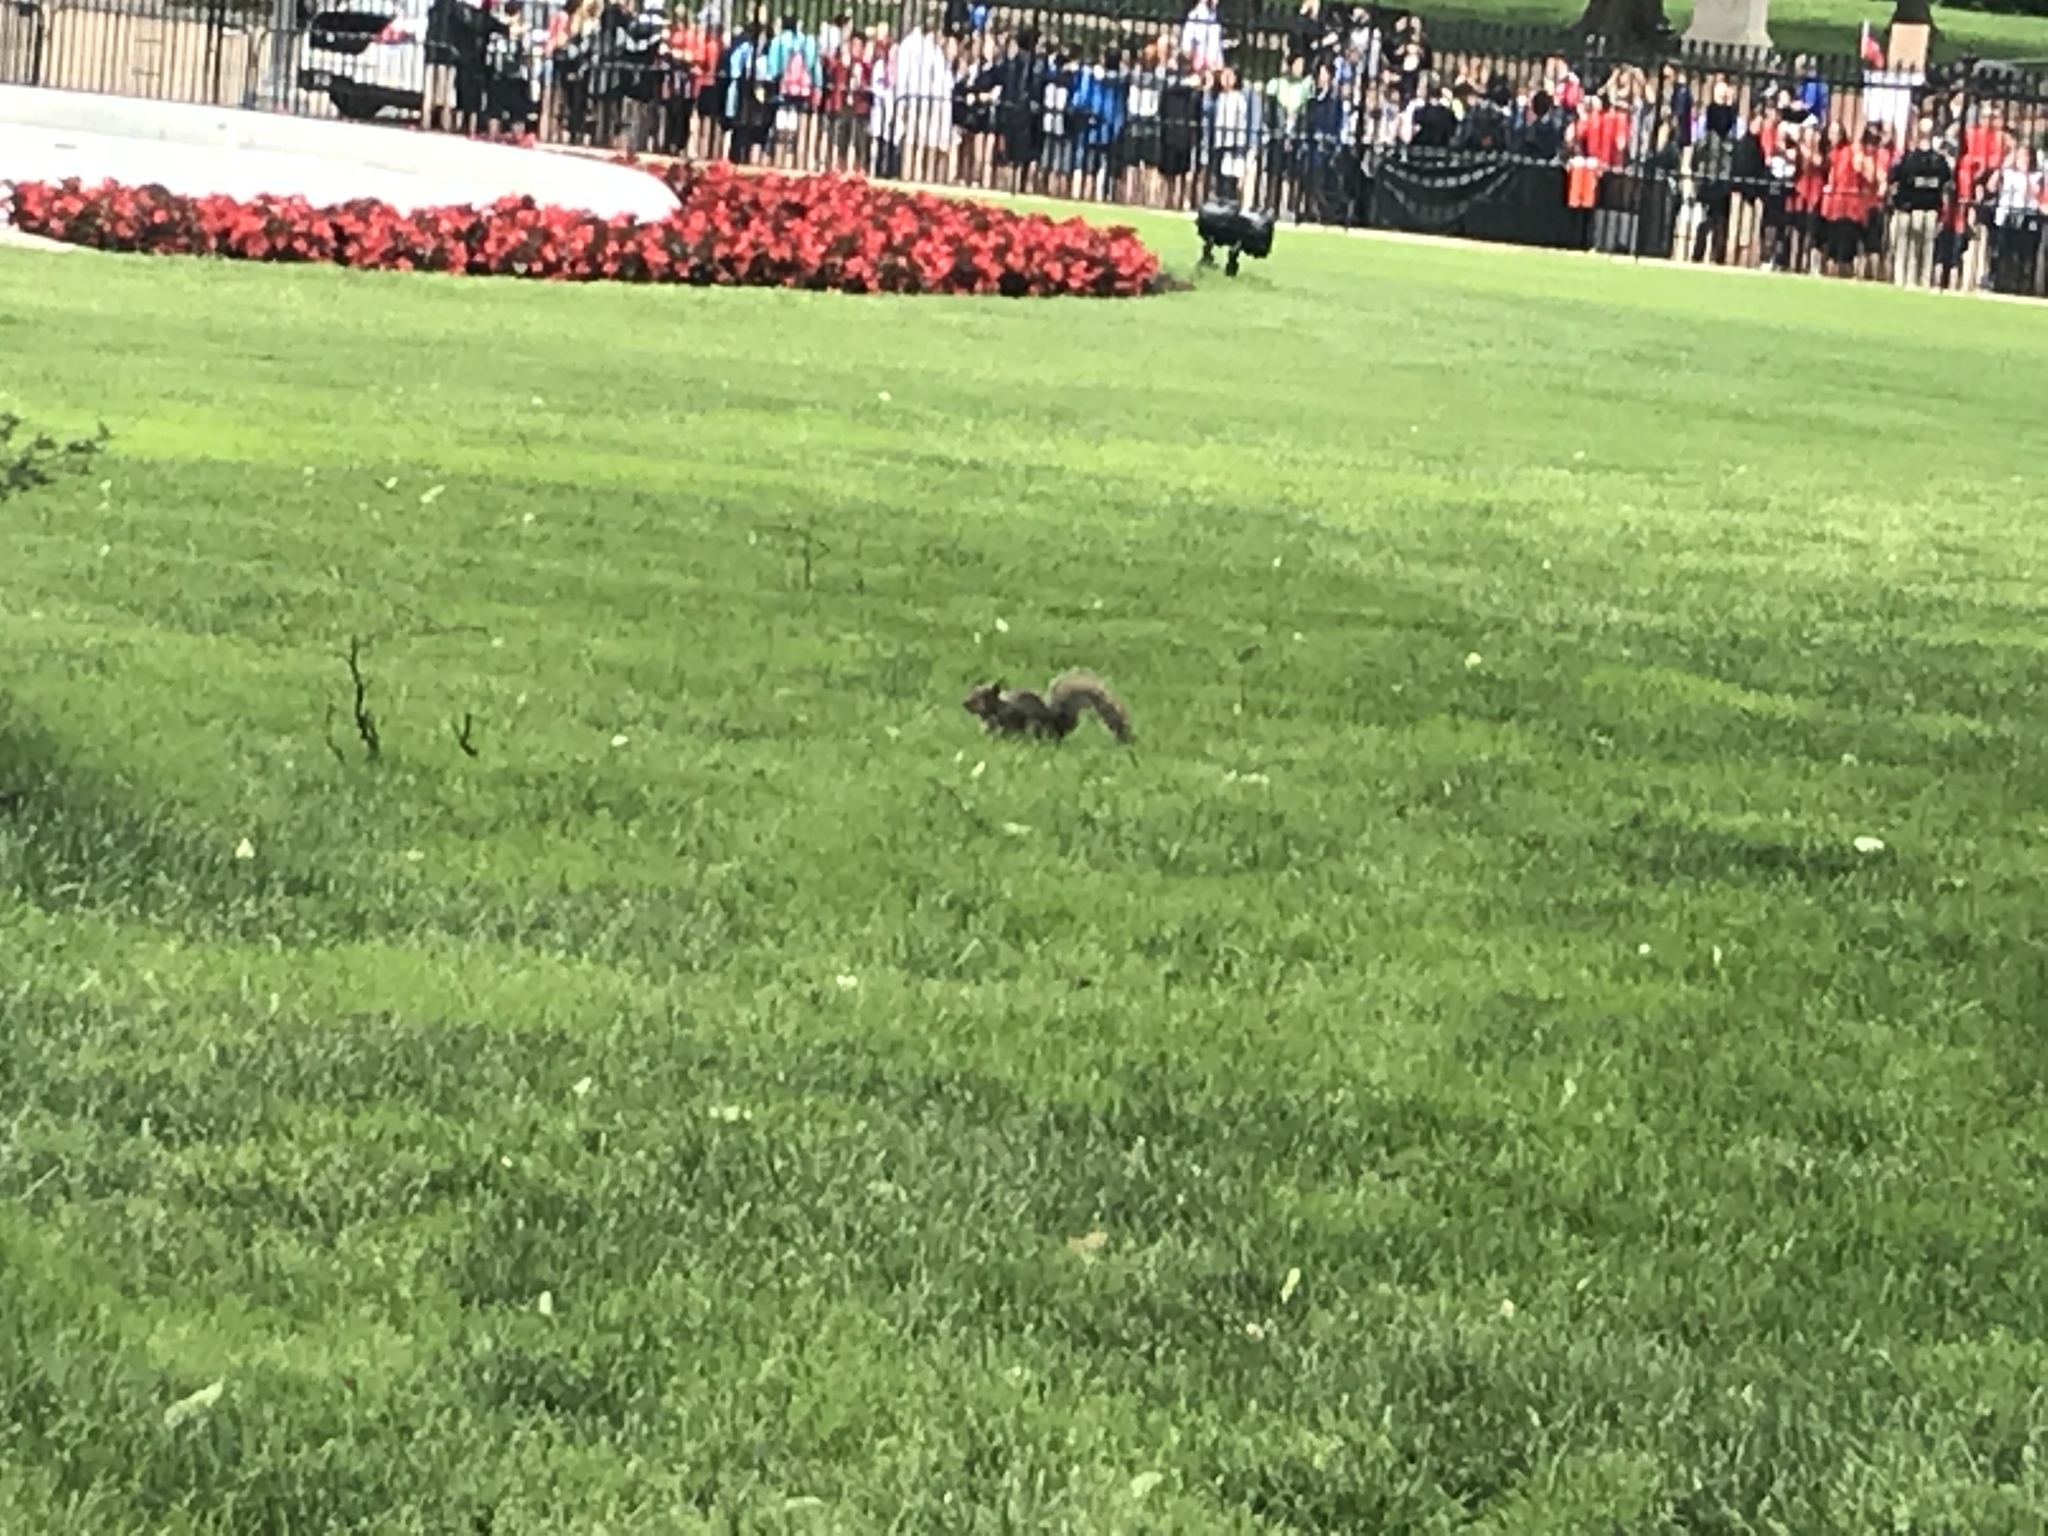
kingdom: Animalia
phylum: Chordata
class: Mammalia
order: Rodentia
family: Sciuridae
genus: Sciurus
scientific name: Sciurus carolinensis
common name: Eastern gray squirrel
